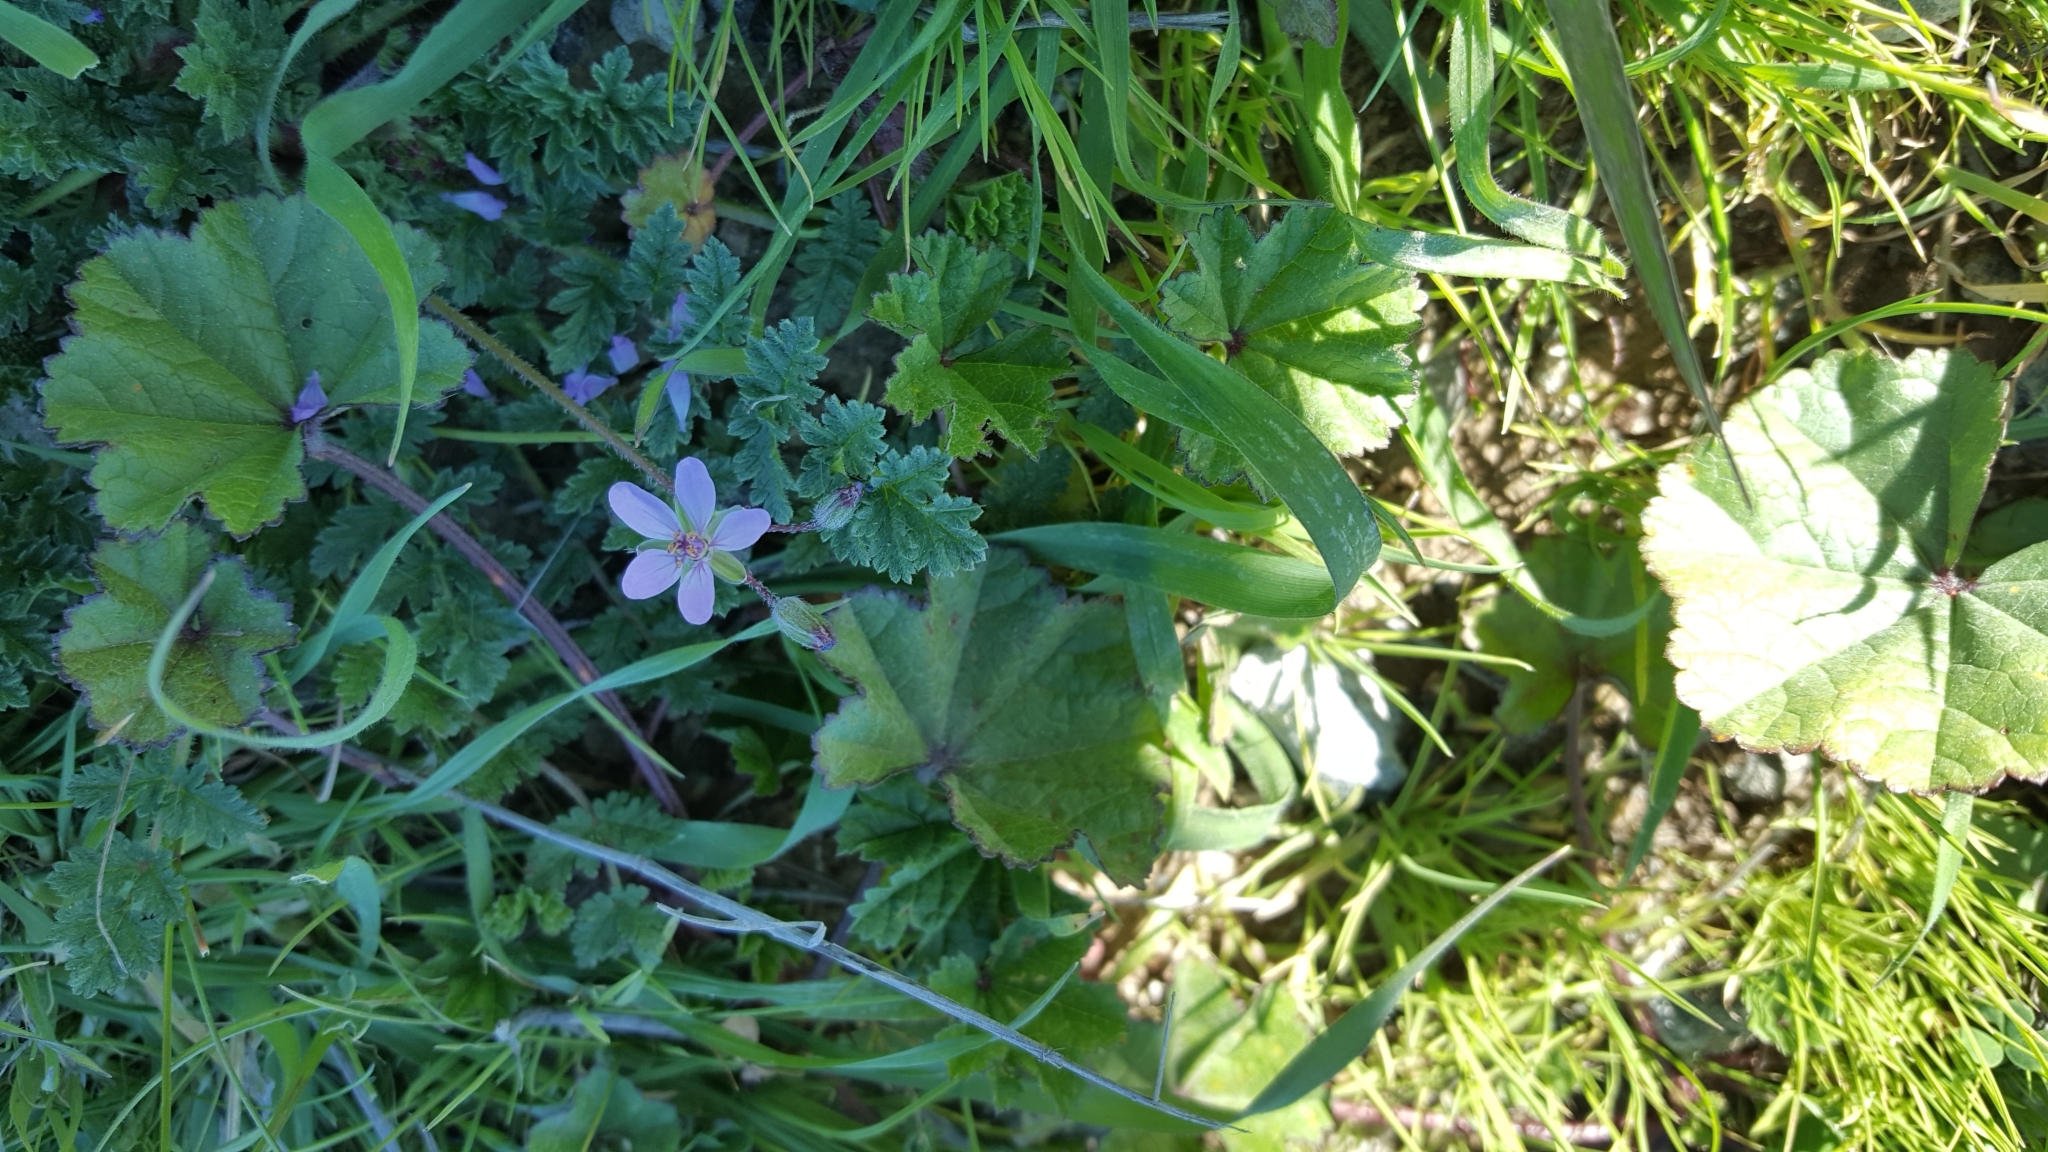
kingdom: Plantae
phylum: Tracheophyta
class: Magnoliopsida
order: Geraniales
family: Geraniaceae
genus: Erodium
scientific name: Erodium cicutarium
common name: Common stork's-bill
